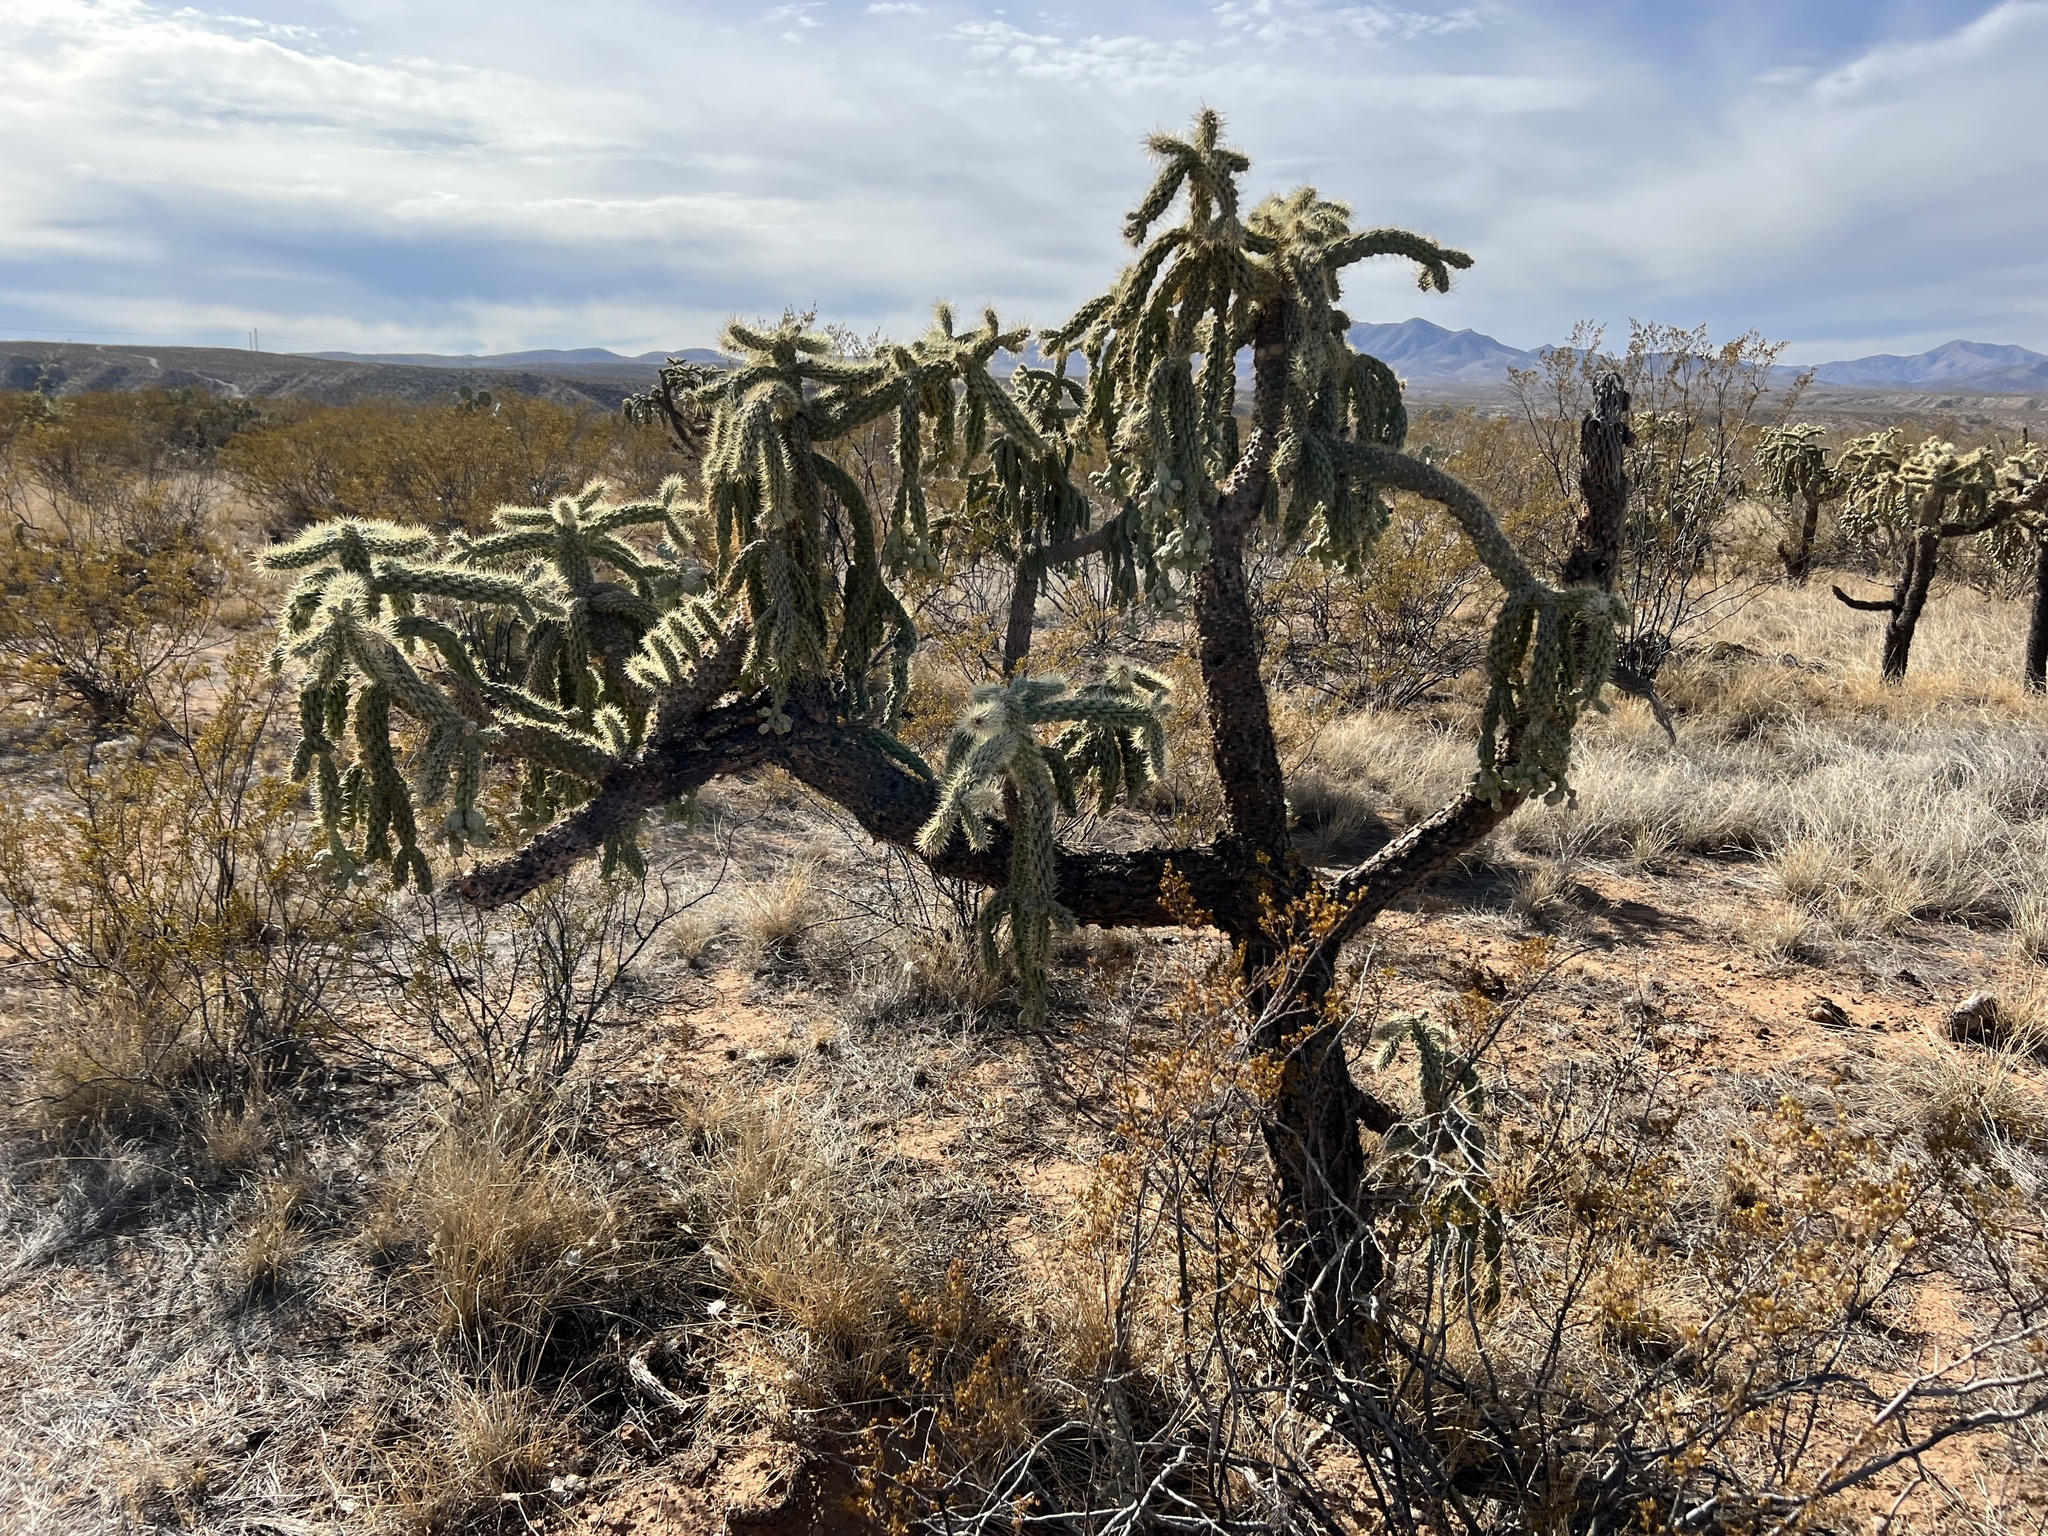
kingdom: Plantae
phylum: Tracheophyta
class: Magnoliopsida
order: Caryophyllales
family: Cactaceae
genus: Cylindropuntia
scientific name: Cylindropuntia fulgida
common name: Jumping cholla
